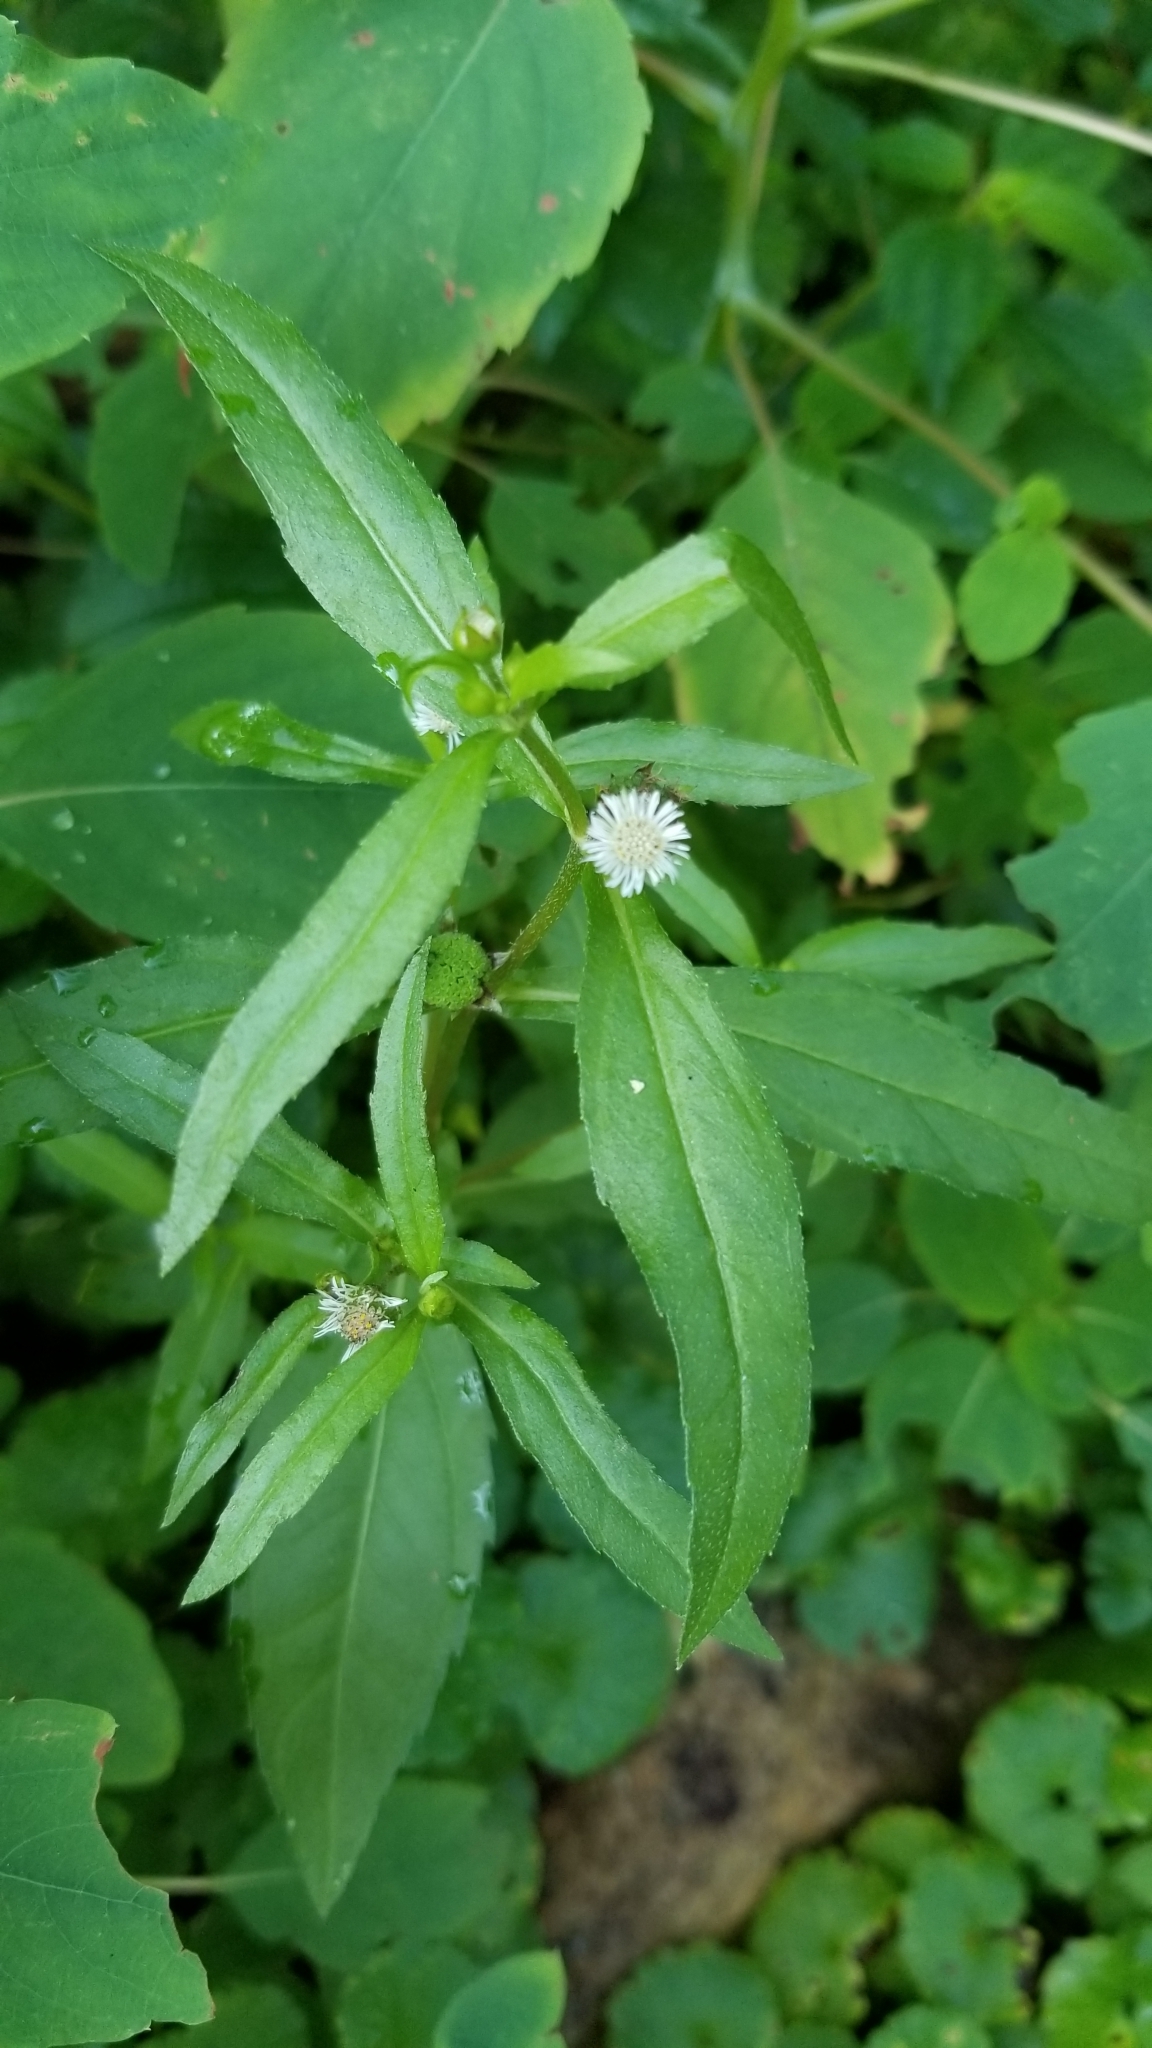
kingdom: Plantae
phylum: Tracheophyta
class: Magnoliopsida
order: Asterales
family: Asteraceae
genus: Eclipta
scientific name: Eclipta prostrata
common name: False daisy
